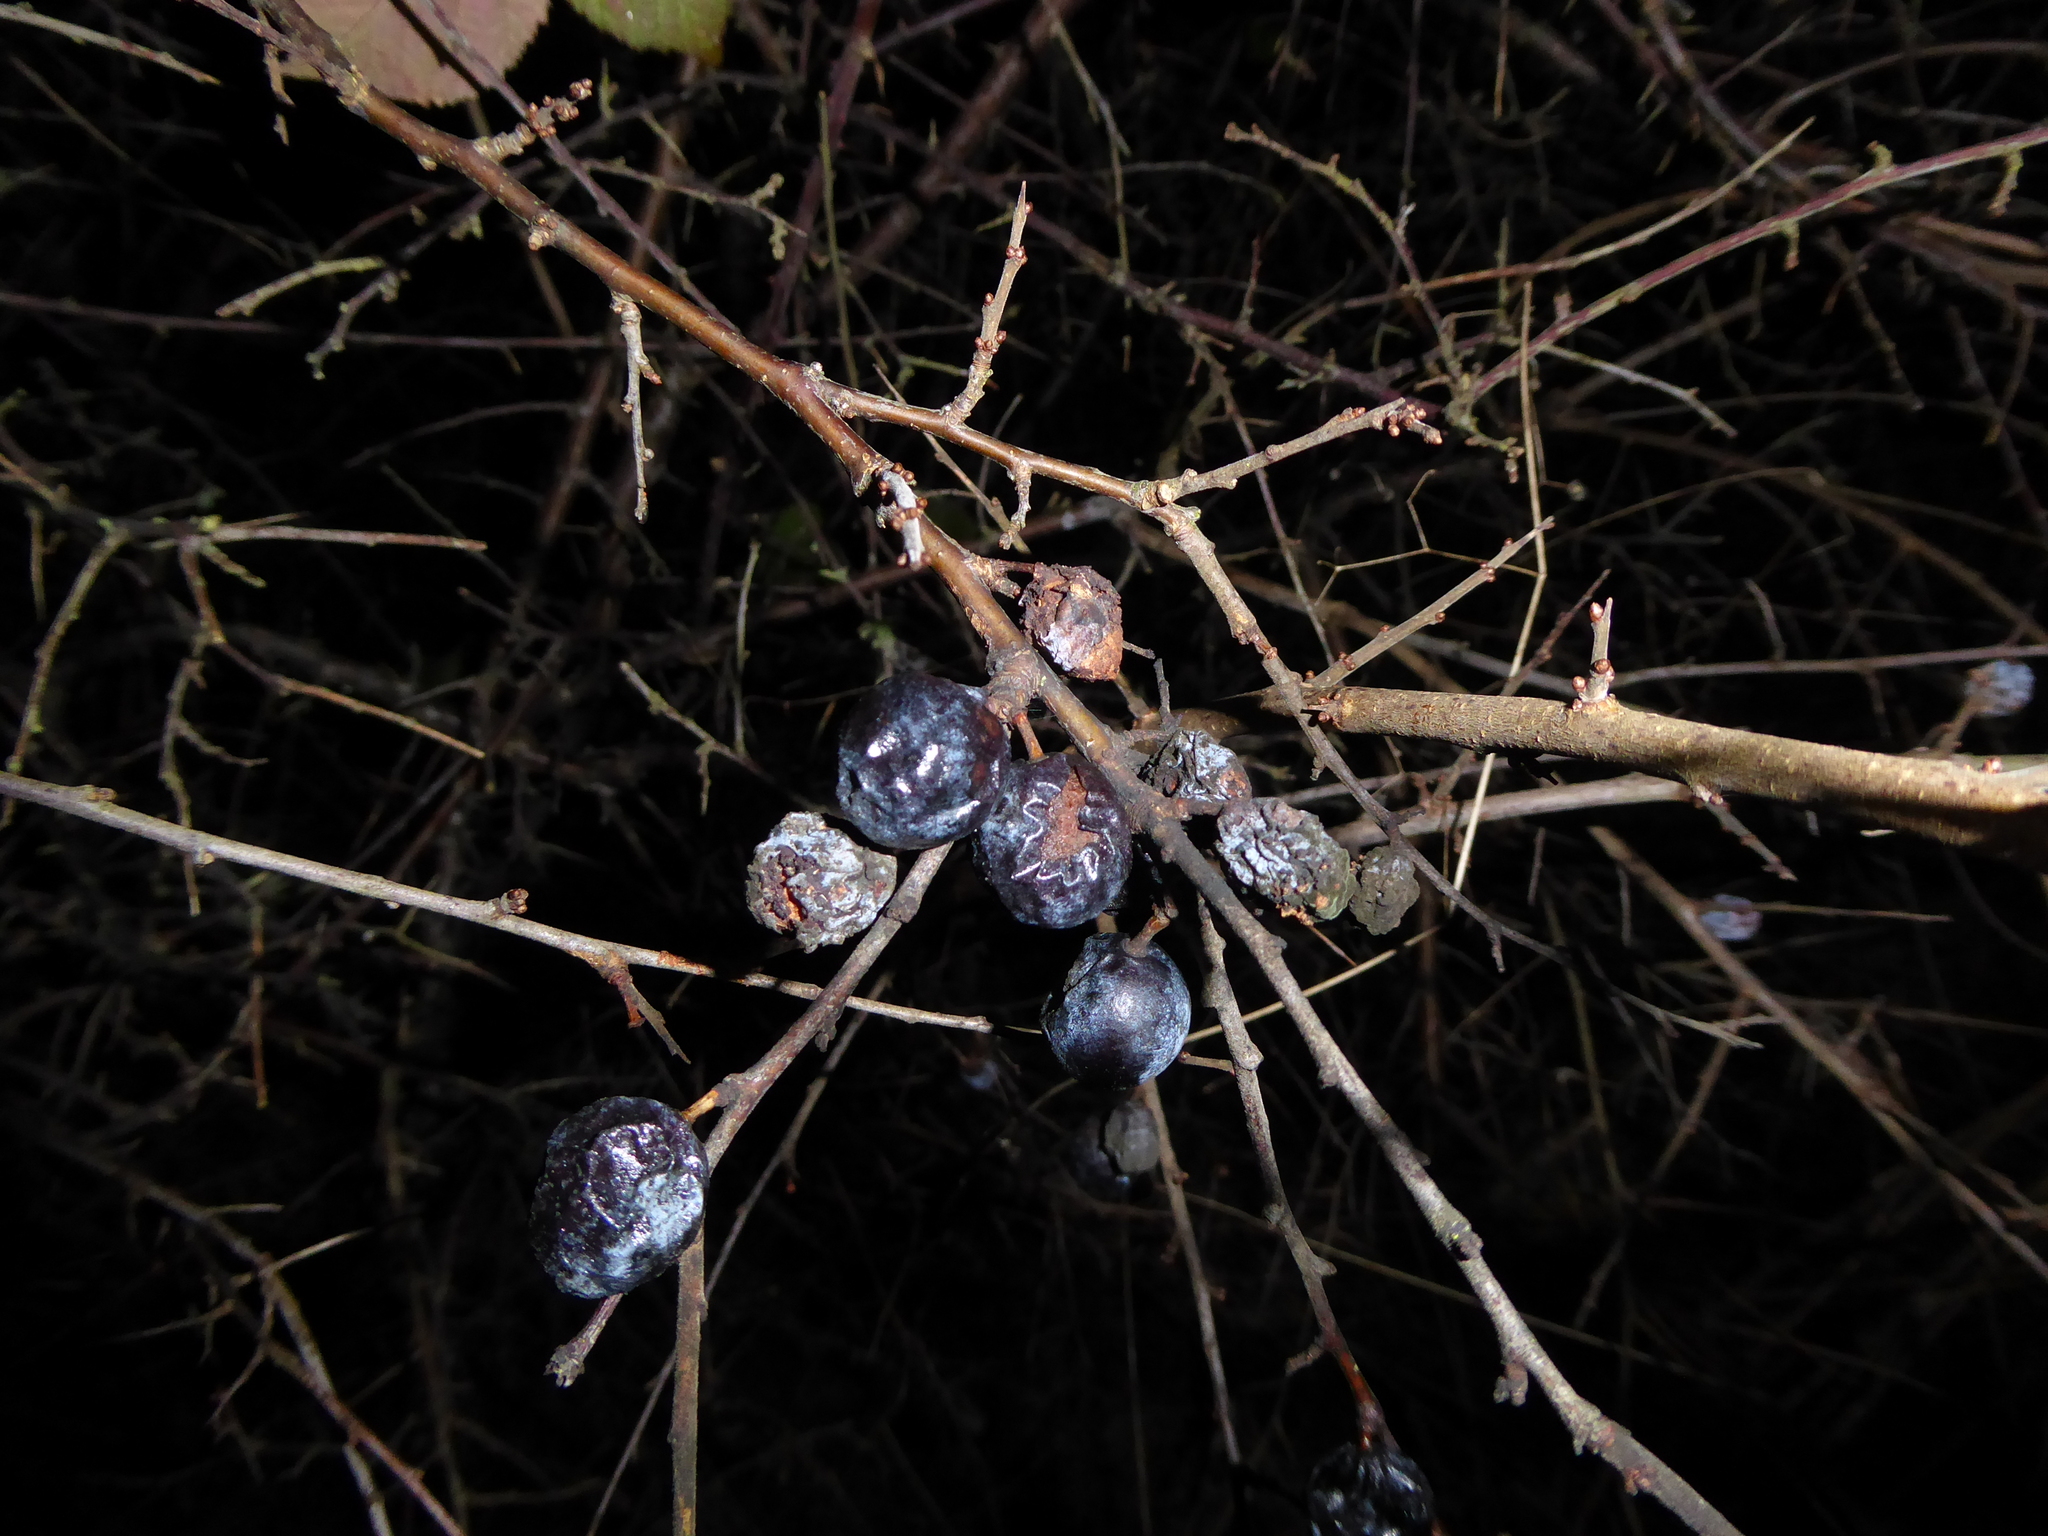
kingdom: Plantae
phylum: Tracheophyta
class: Magnoliopsida
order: Rosales
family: Rosaceae
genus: Prunus
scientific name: Prunus spinosa
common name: Blackthorn
